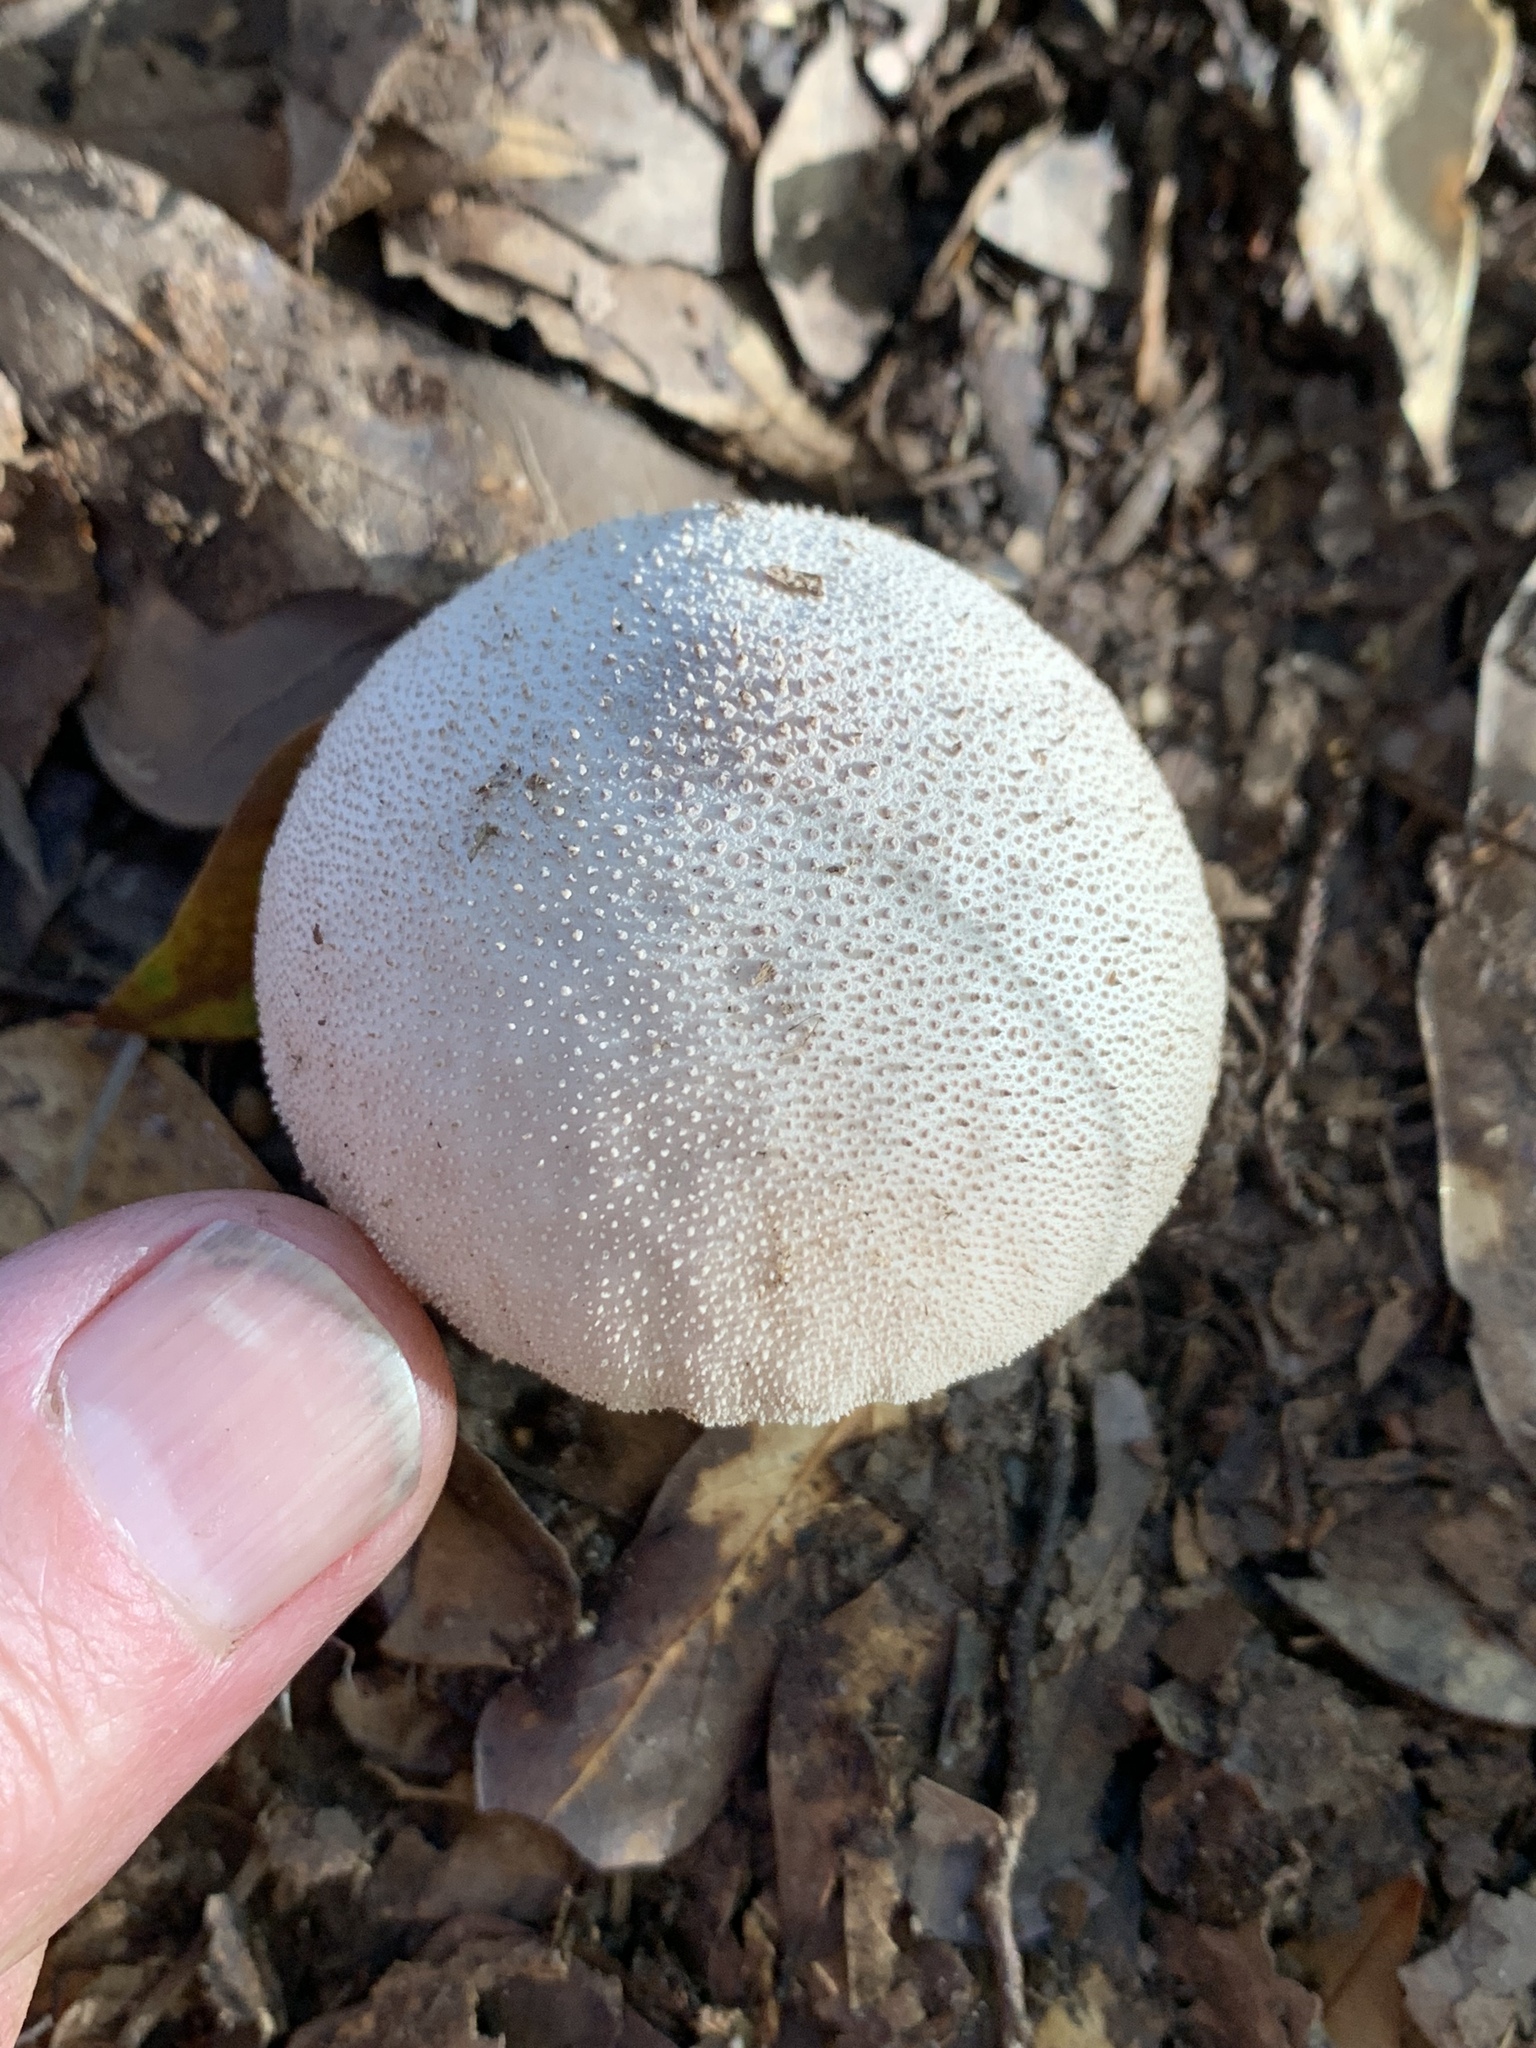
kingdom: Fungi
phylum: Basidiomycota
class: Agaricomycetes
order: Agaricales
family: Lycoperdaceae
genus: Lycoperdon
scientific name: Lycoperdon perlatum
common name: Common puffball
